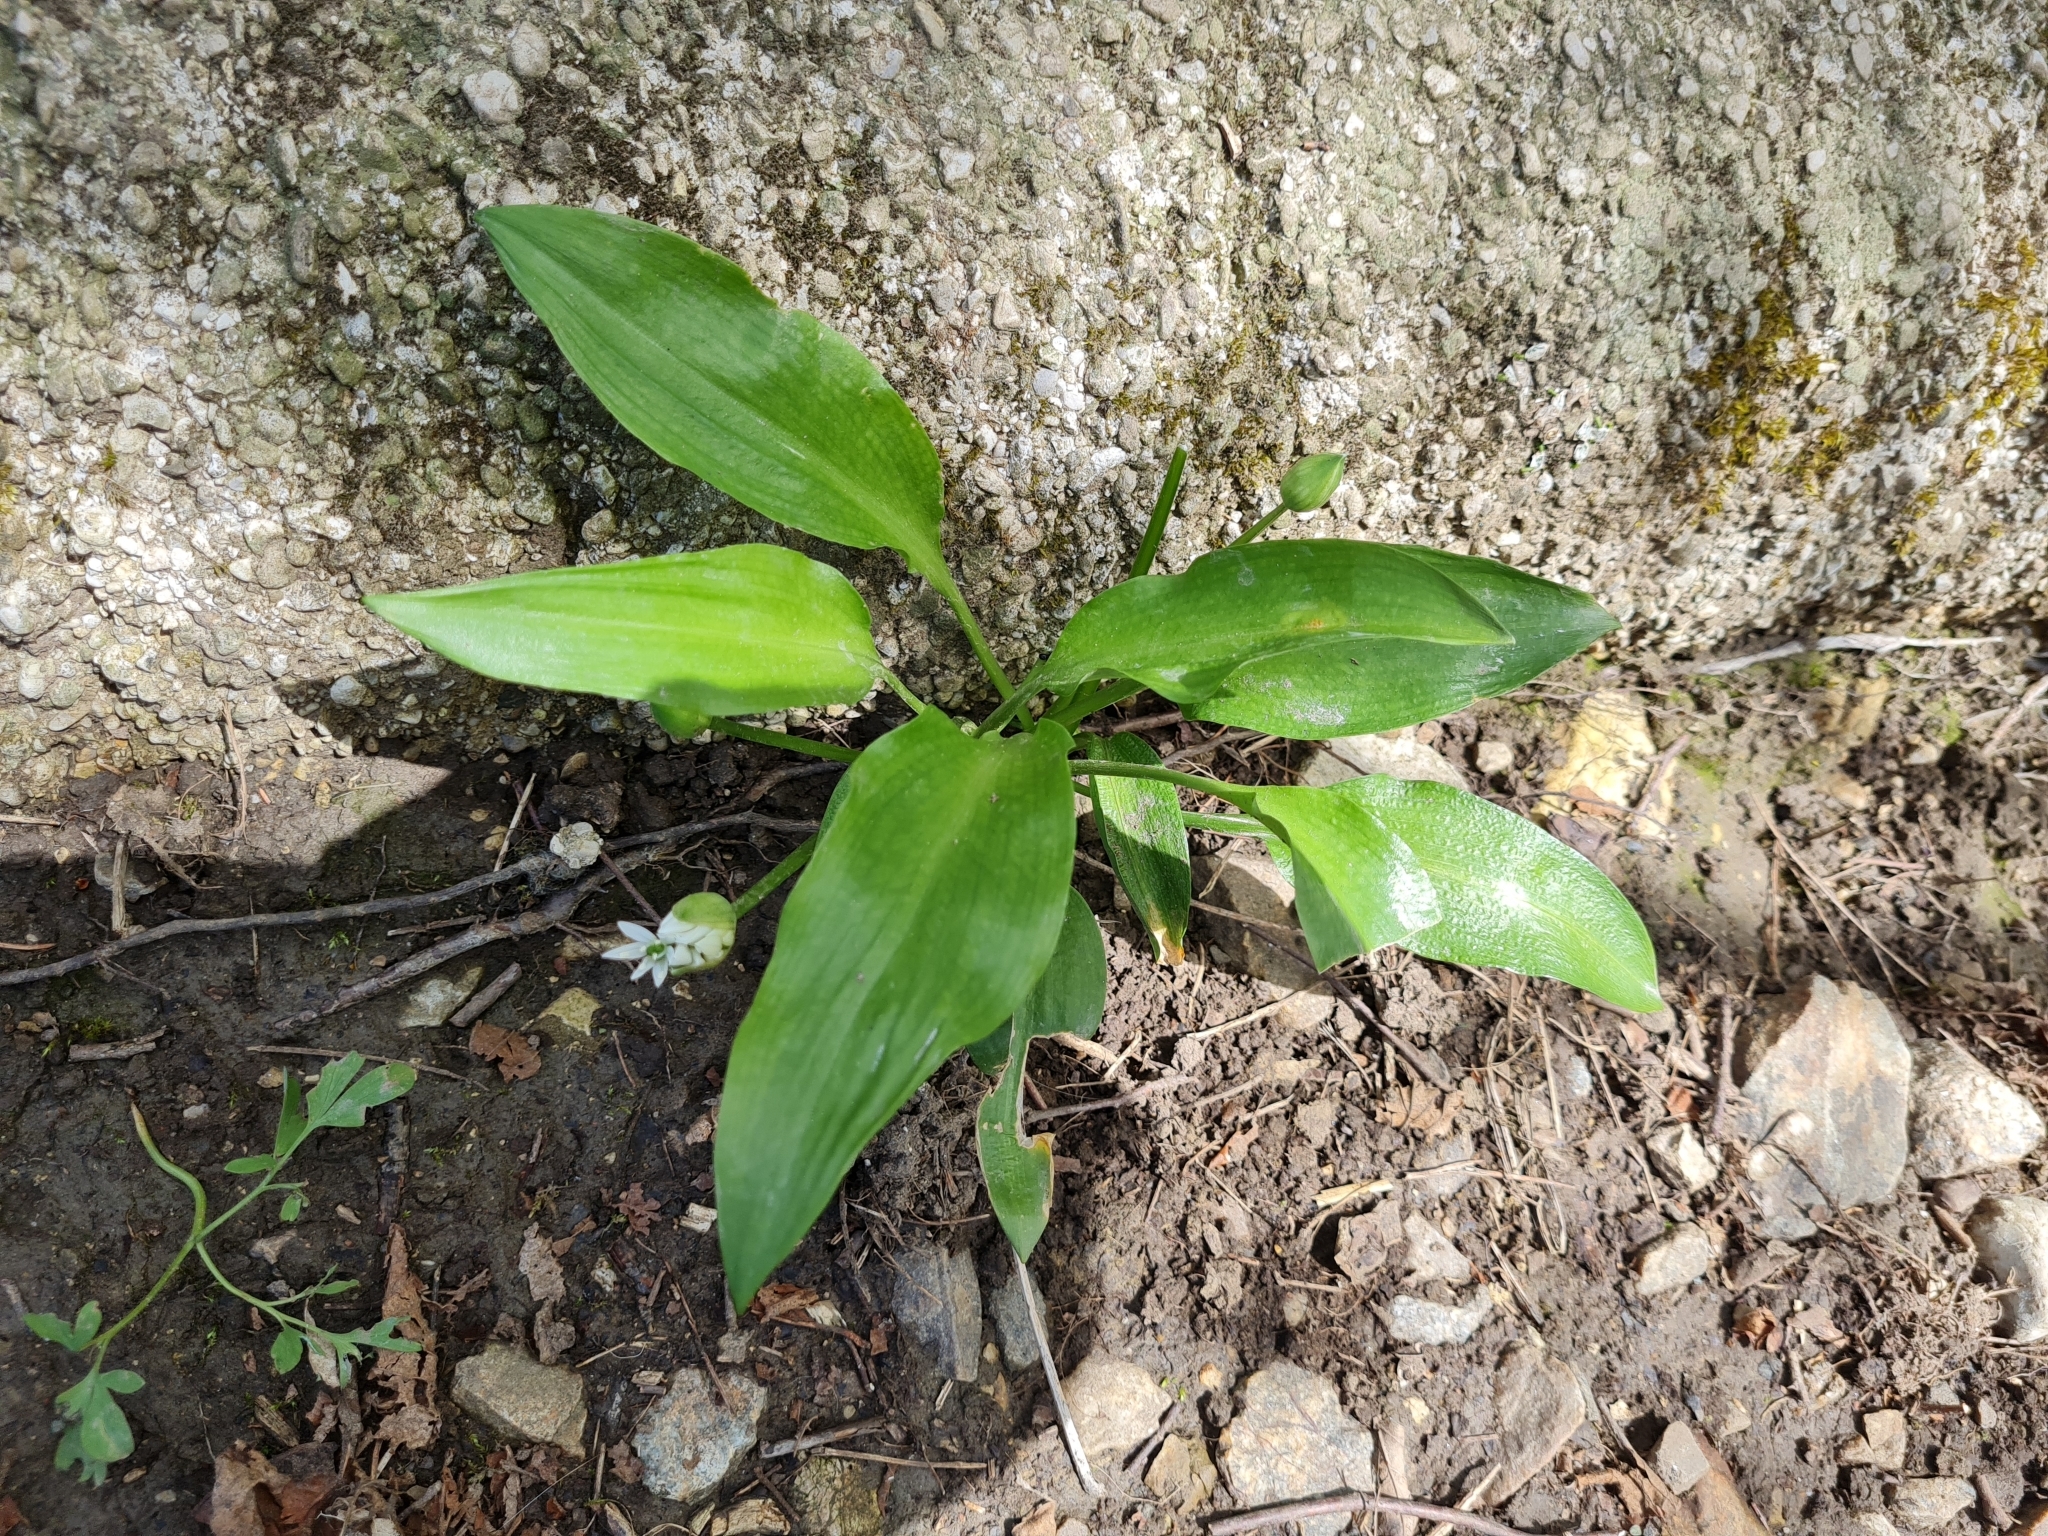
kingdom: Plantae
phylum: Tracheophyta
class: Liliopsida
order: Asparagales
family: Amaryllidaceae
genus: Allium
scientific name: Allium ursinum
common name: Ramsons
